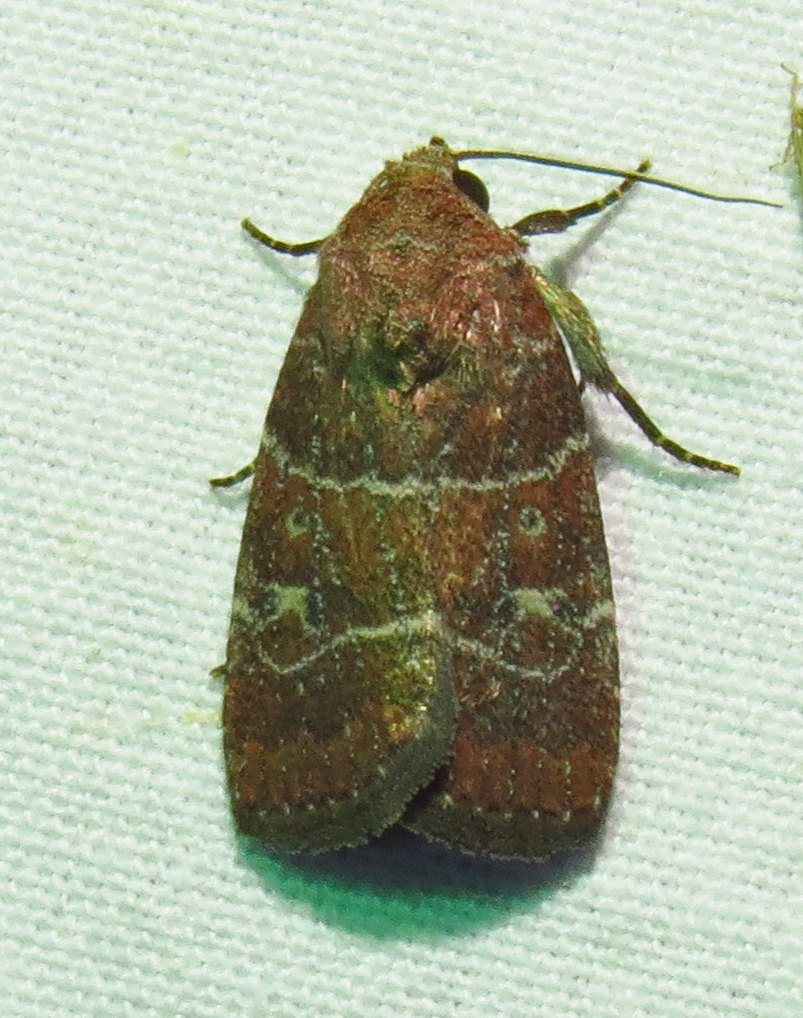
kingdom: Animalia
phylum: Arthropoda
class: Insecta
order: Lepidoptera
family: Noctuidae
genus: Elaphria
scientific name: Elaphria grata
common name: Grateful midget moth
